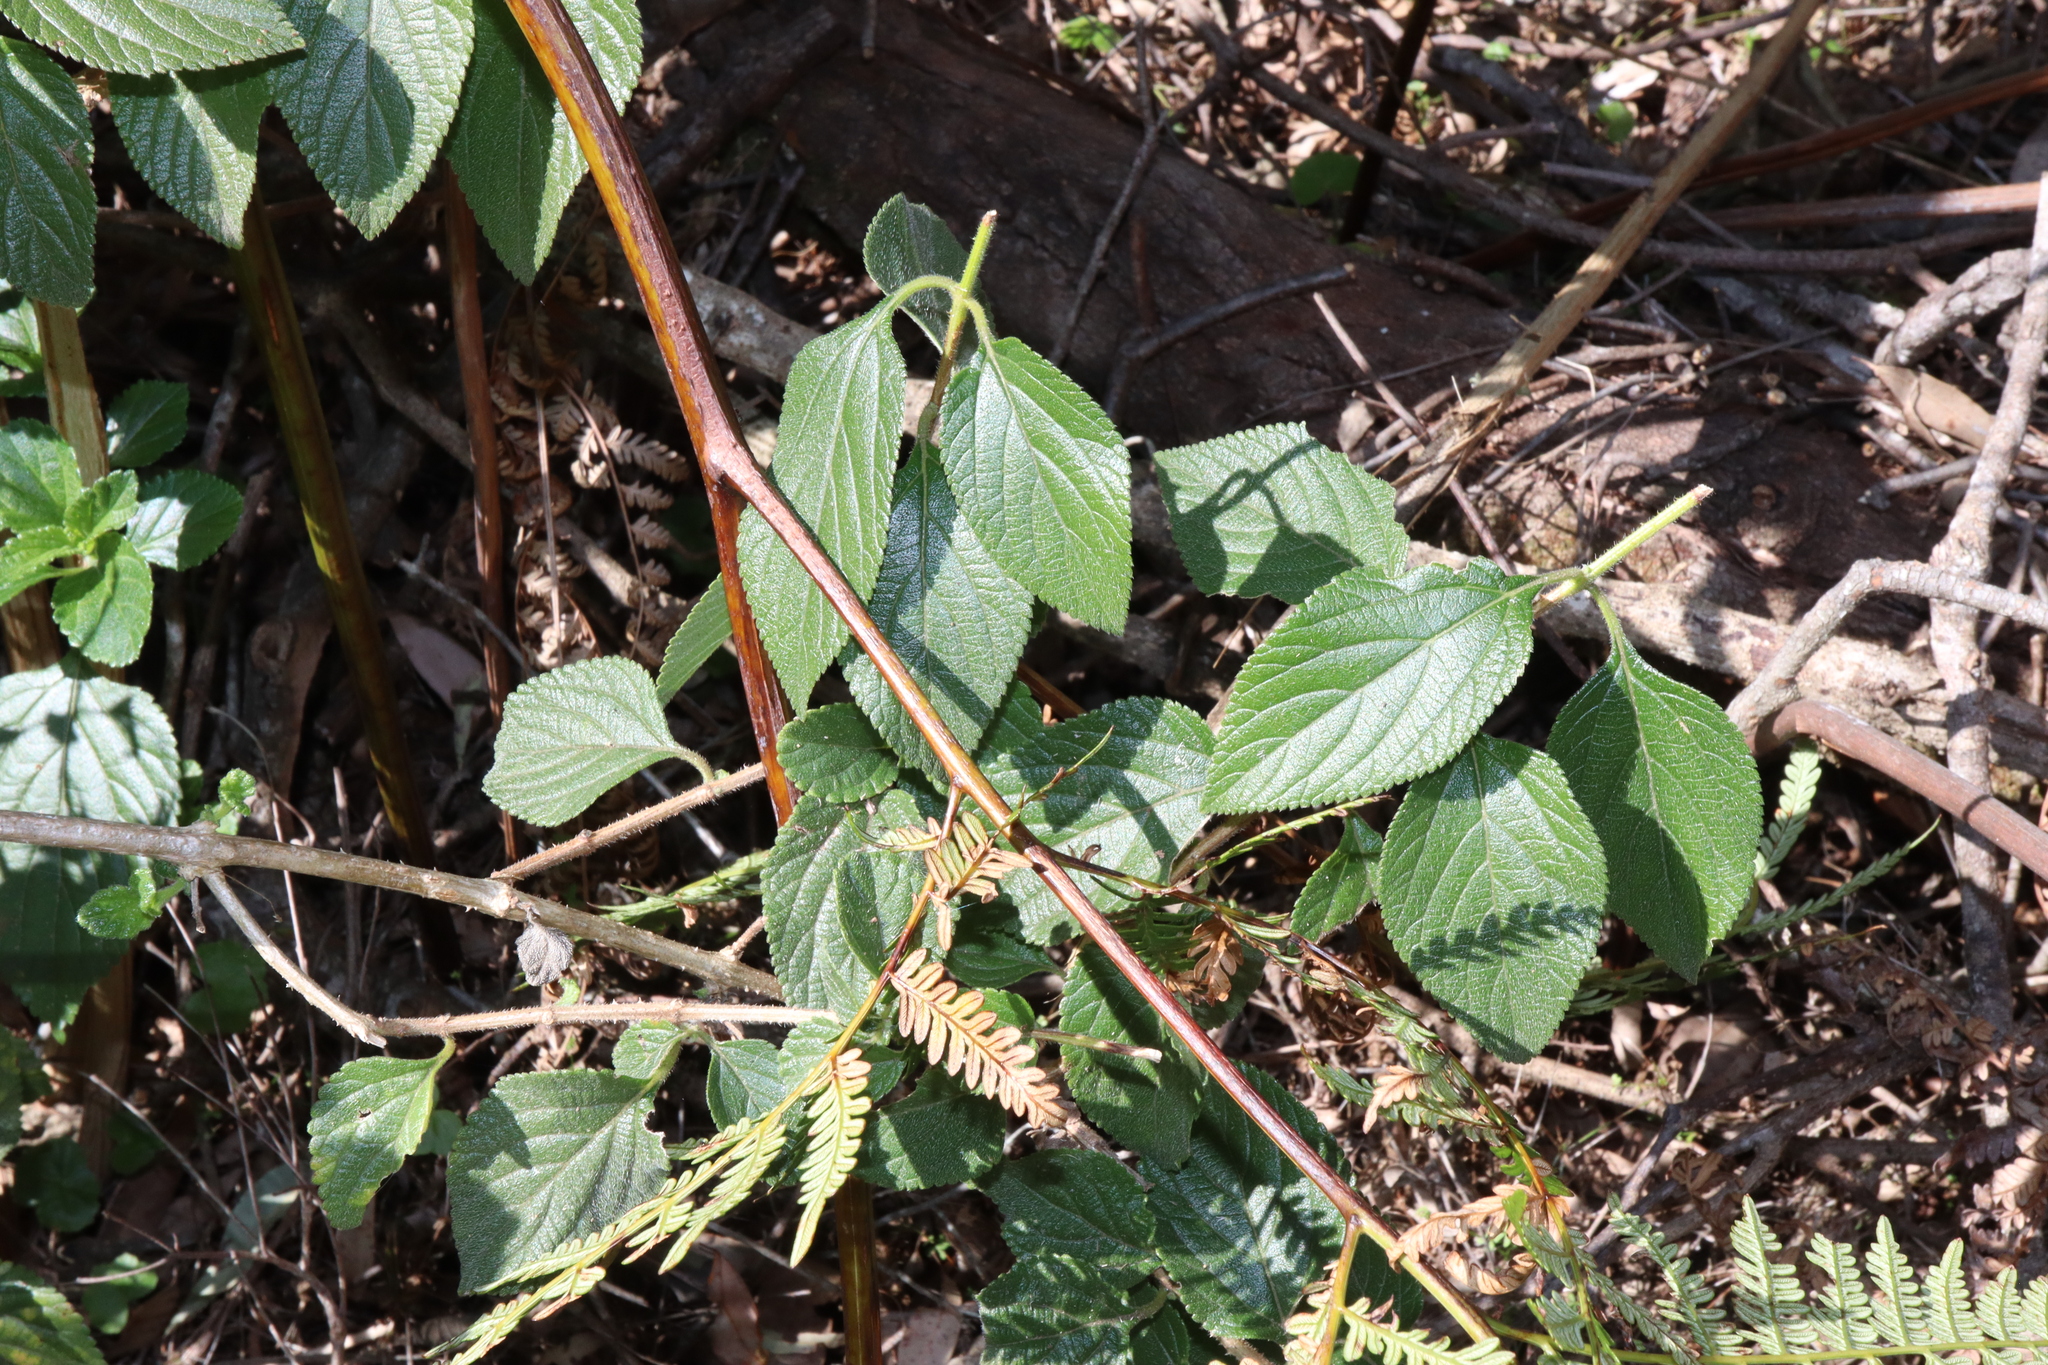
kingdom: Plantae
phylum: Tracheophyta
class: Magnoliopsida
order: Lamiales
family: Verbenaceae
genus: Lantana
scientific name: Lantana camara
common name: Lantana
